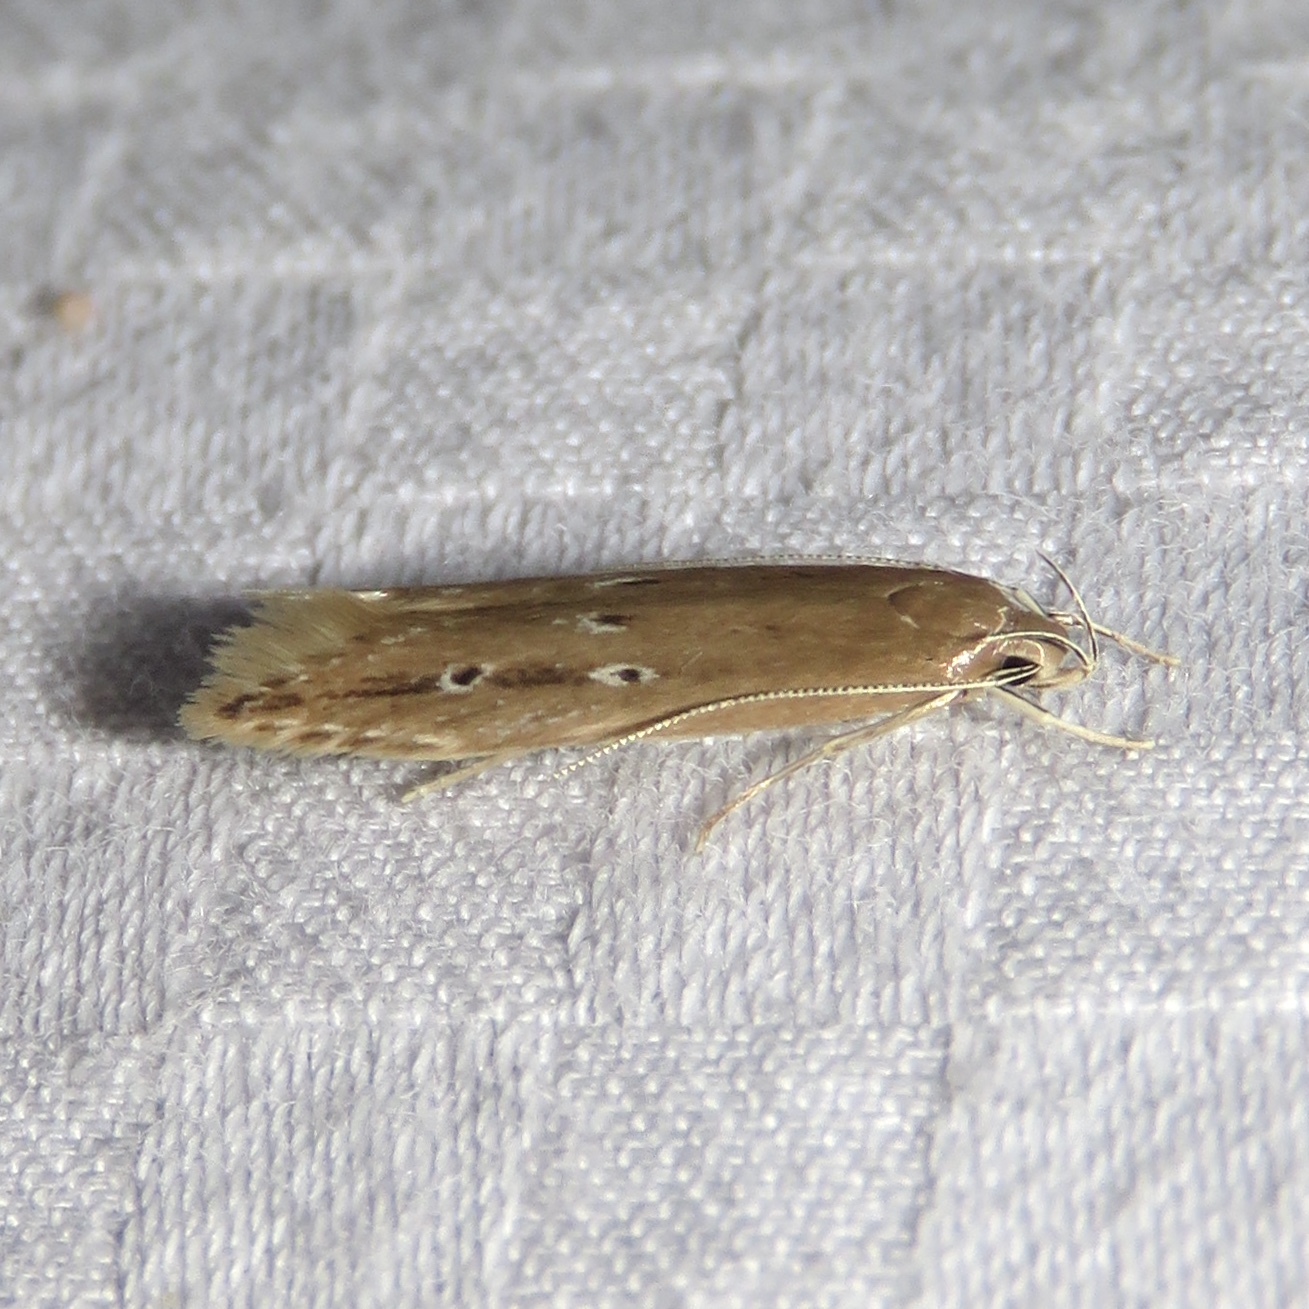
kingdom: Animalia
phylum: Arthropoda
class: Insecta
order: Lepidoptera
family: Cosmopterigidae
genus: Limnaecia
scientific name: Limnaecia phragmitella
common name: Bulrush cosmet
